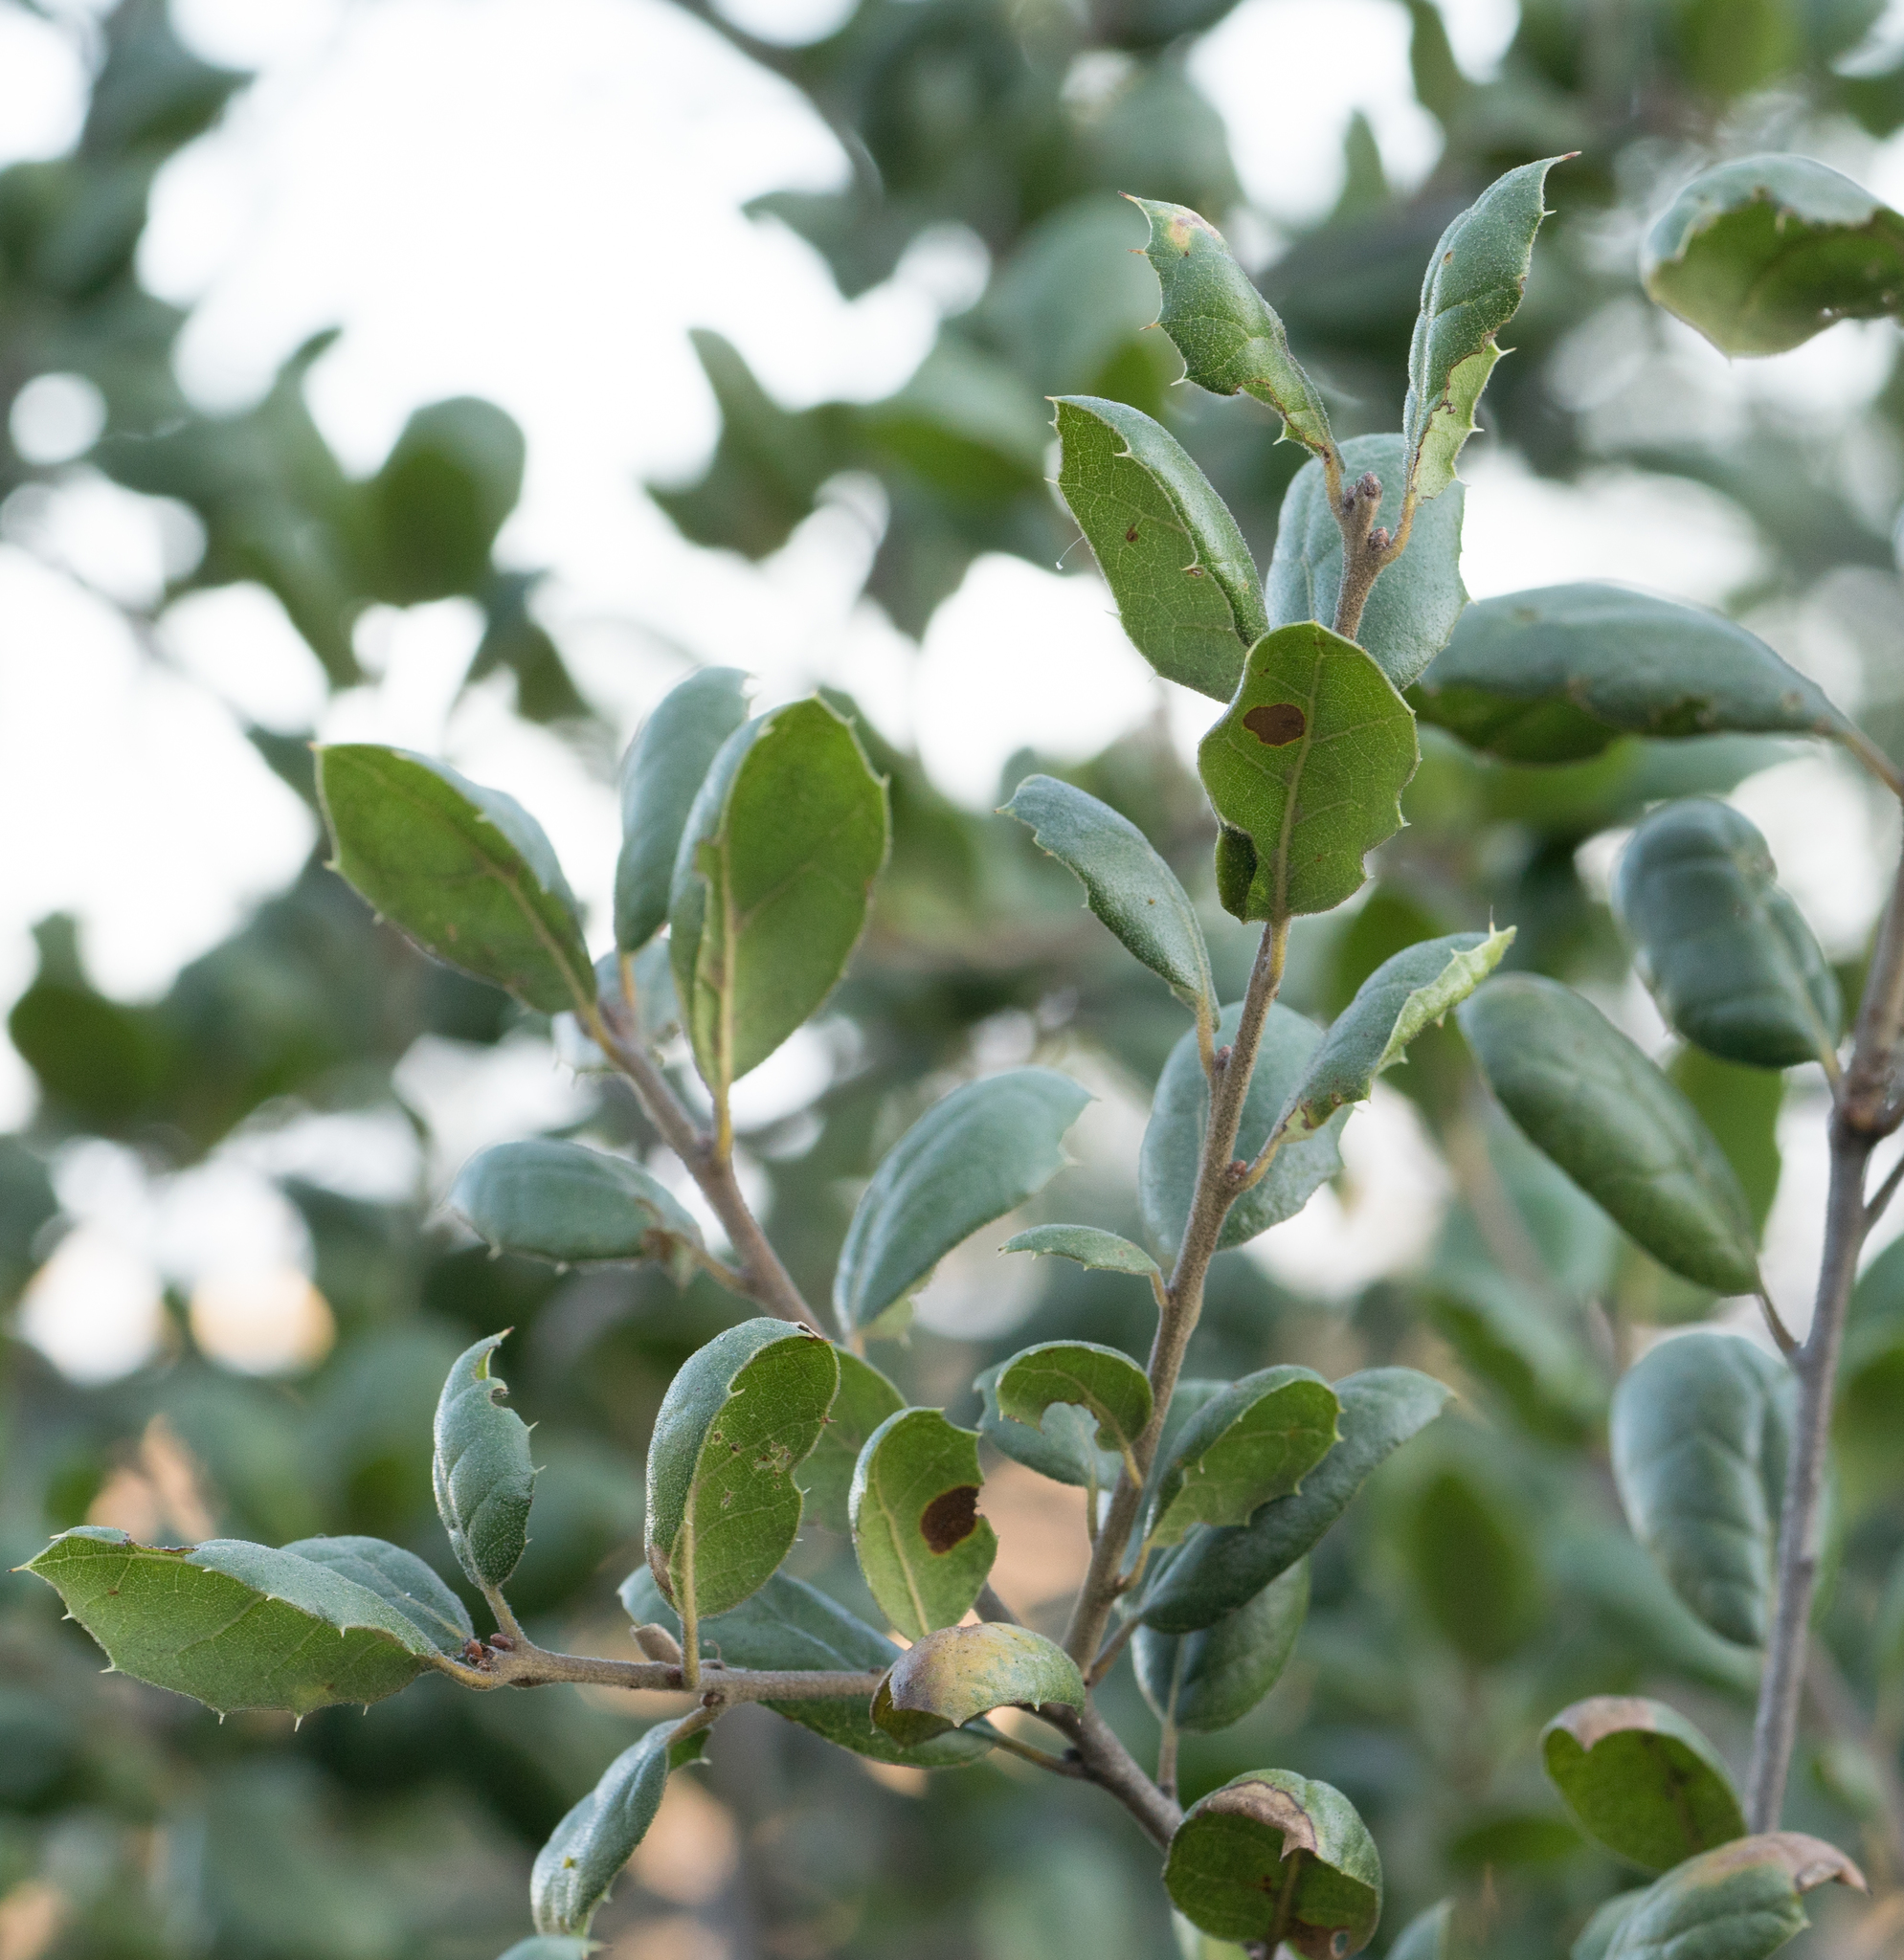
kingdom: Plantae
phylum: Tracheophyta
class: Magnoliopsida
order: Fagales
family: Fagaceae
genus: Quercus
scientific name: Quercus agrifolia
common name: California live oak
